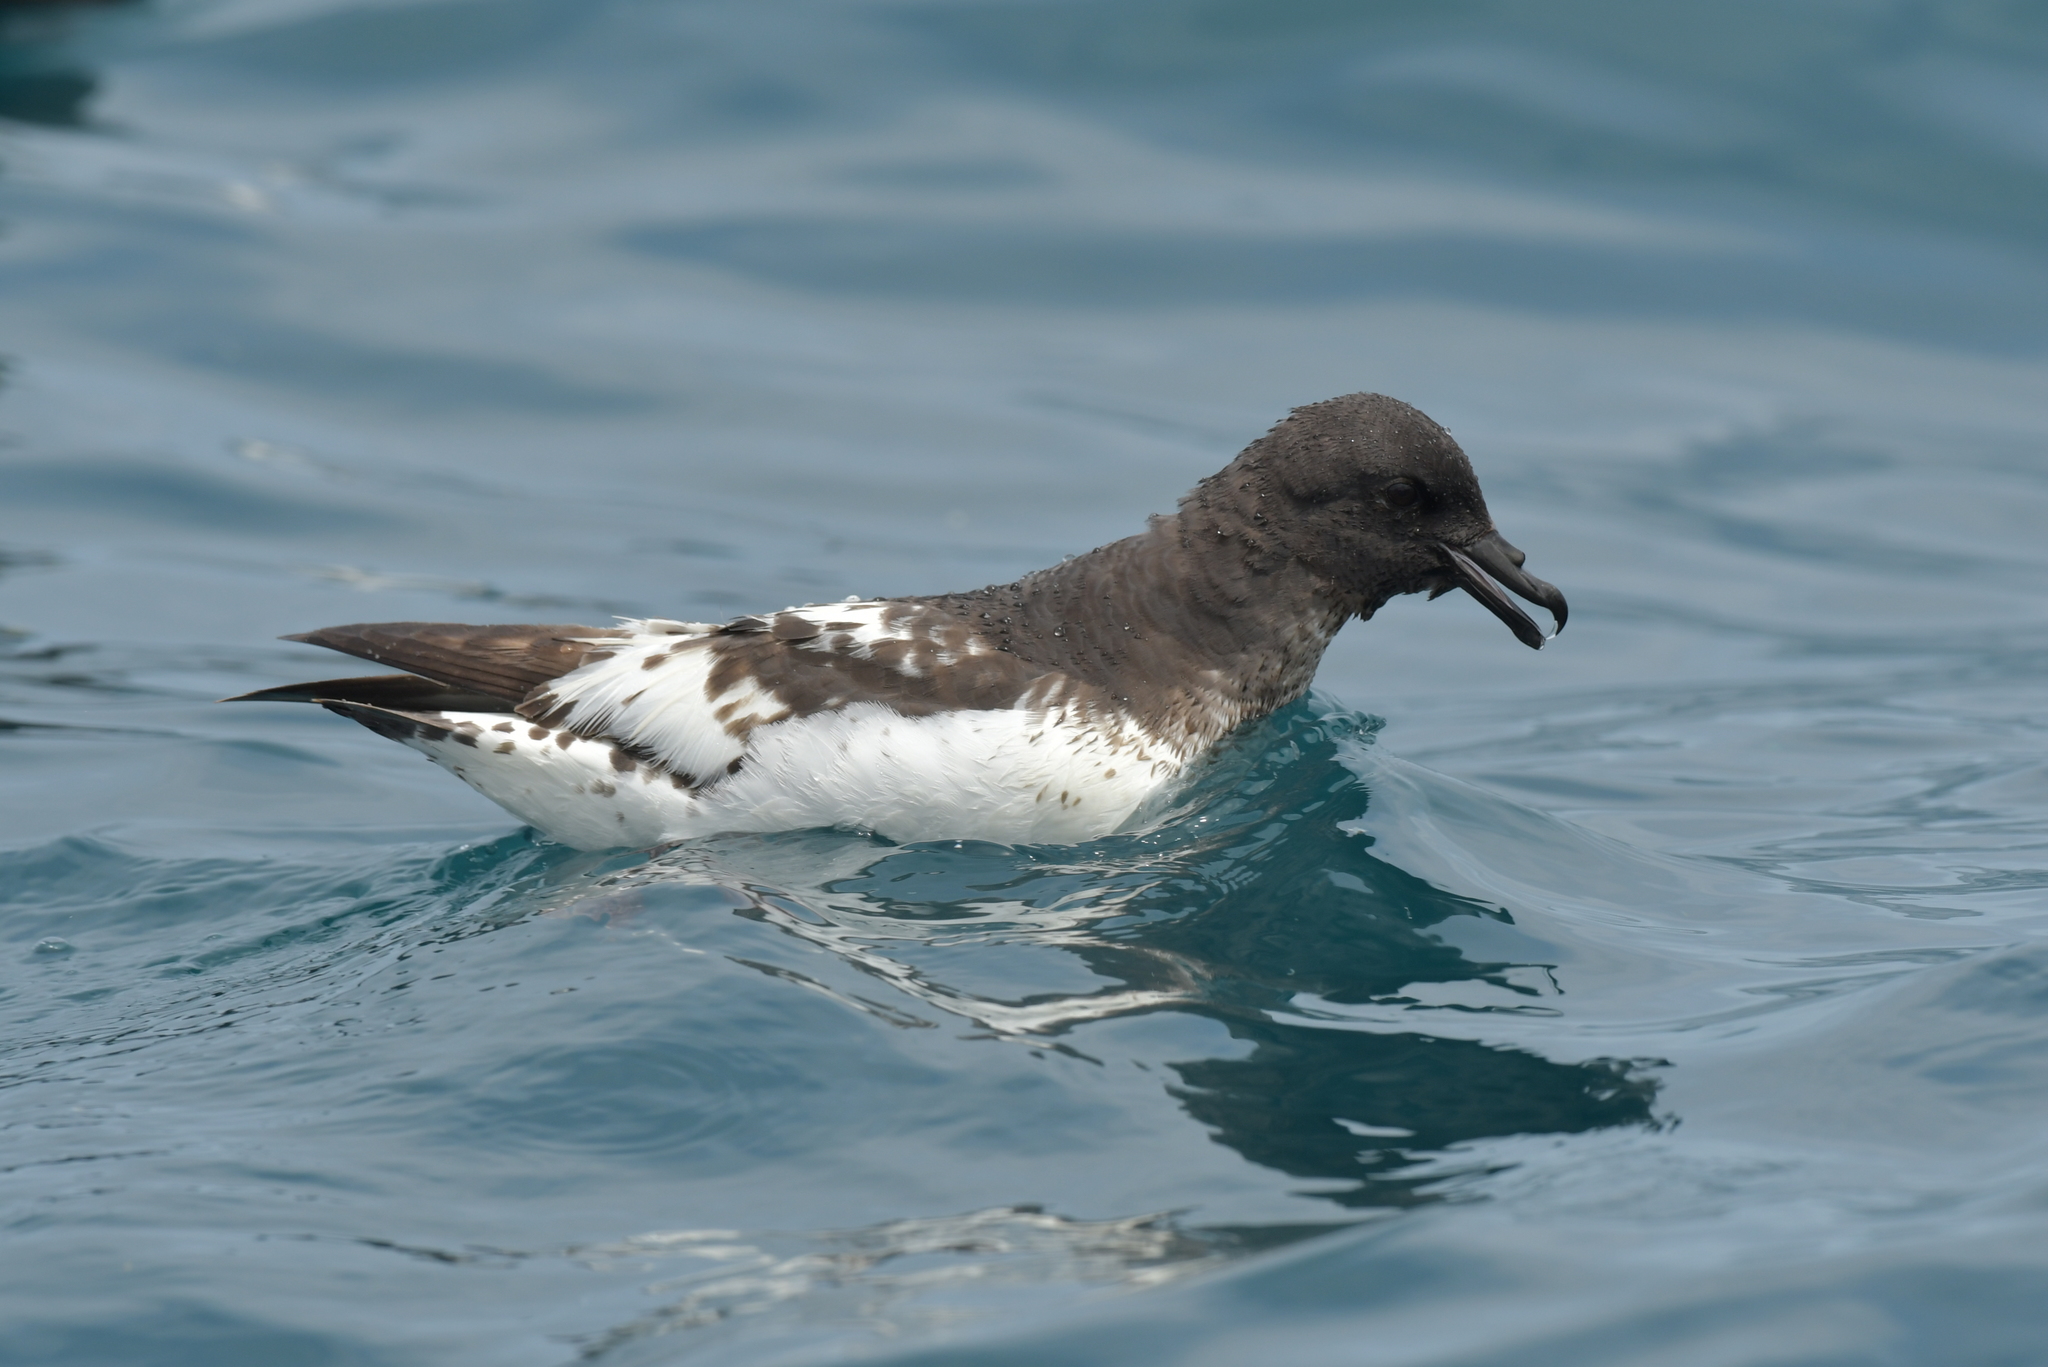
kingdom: Animalia
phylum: Chordata
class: Aves
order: Procellariiformes
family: Procellariidae
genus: Daption
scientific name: Daption capense
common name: Cape petrel
